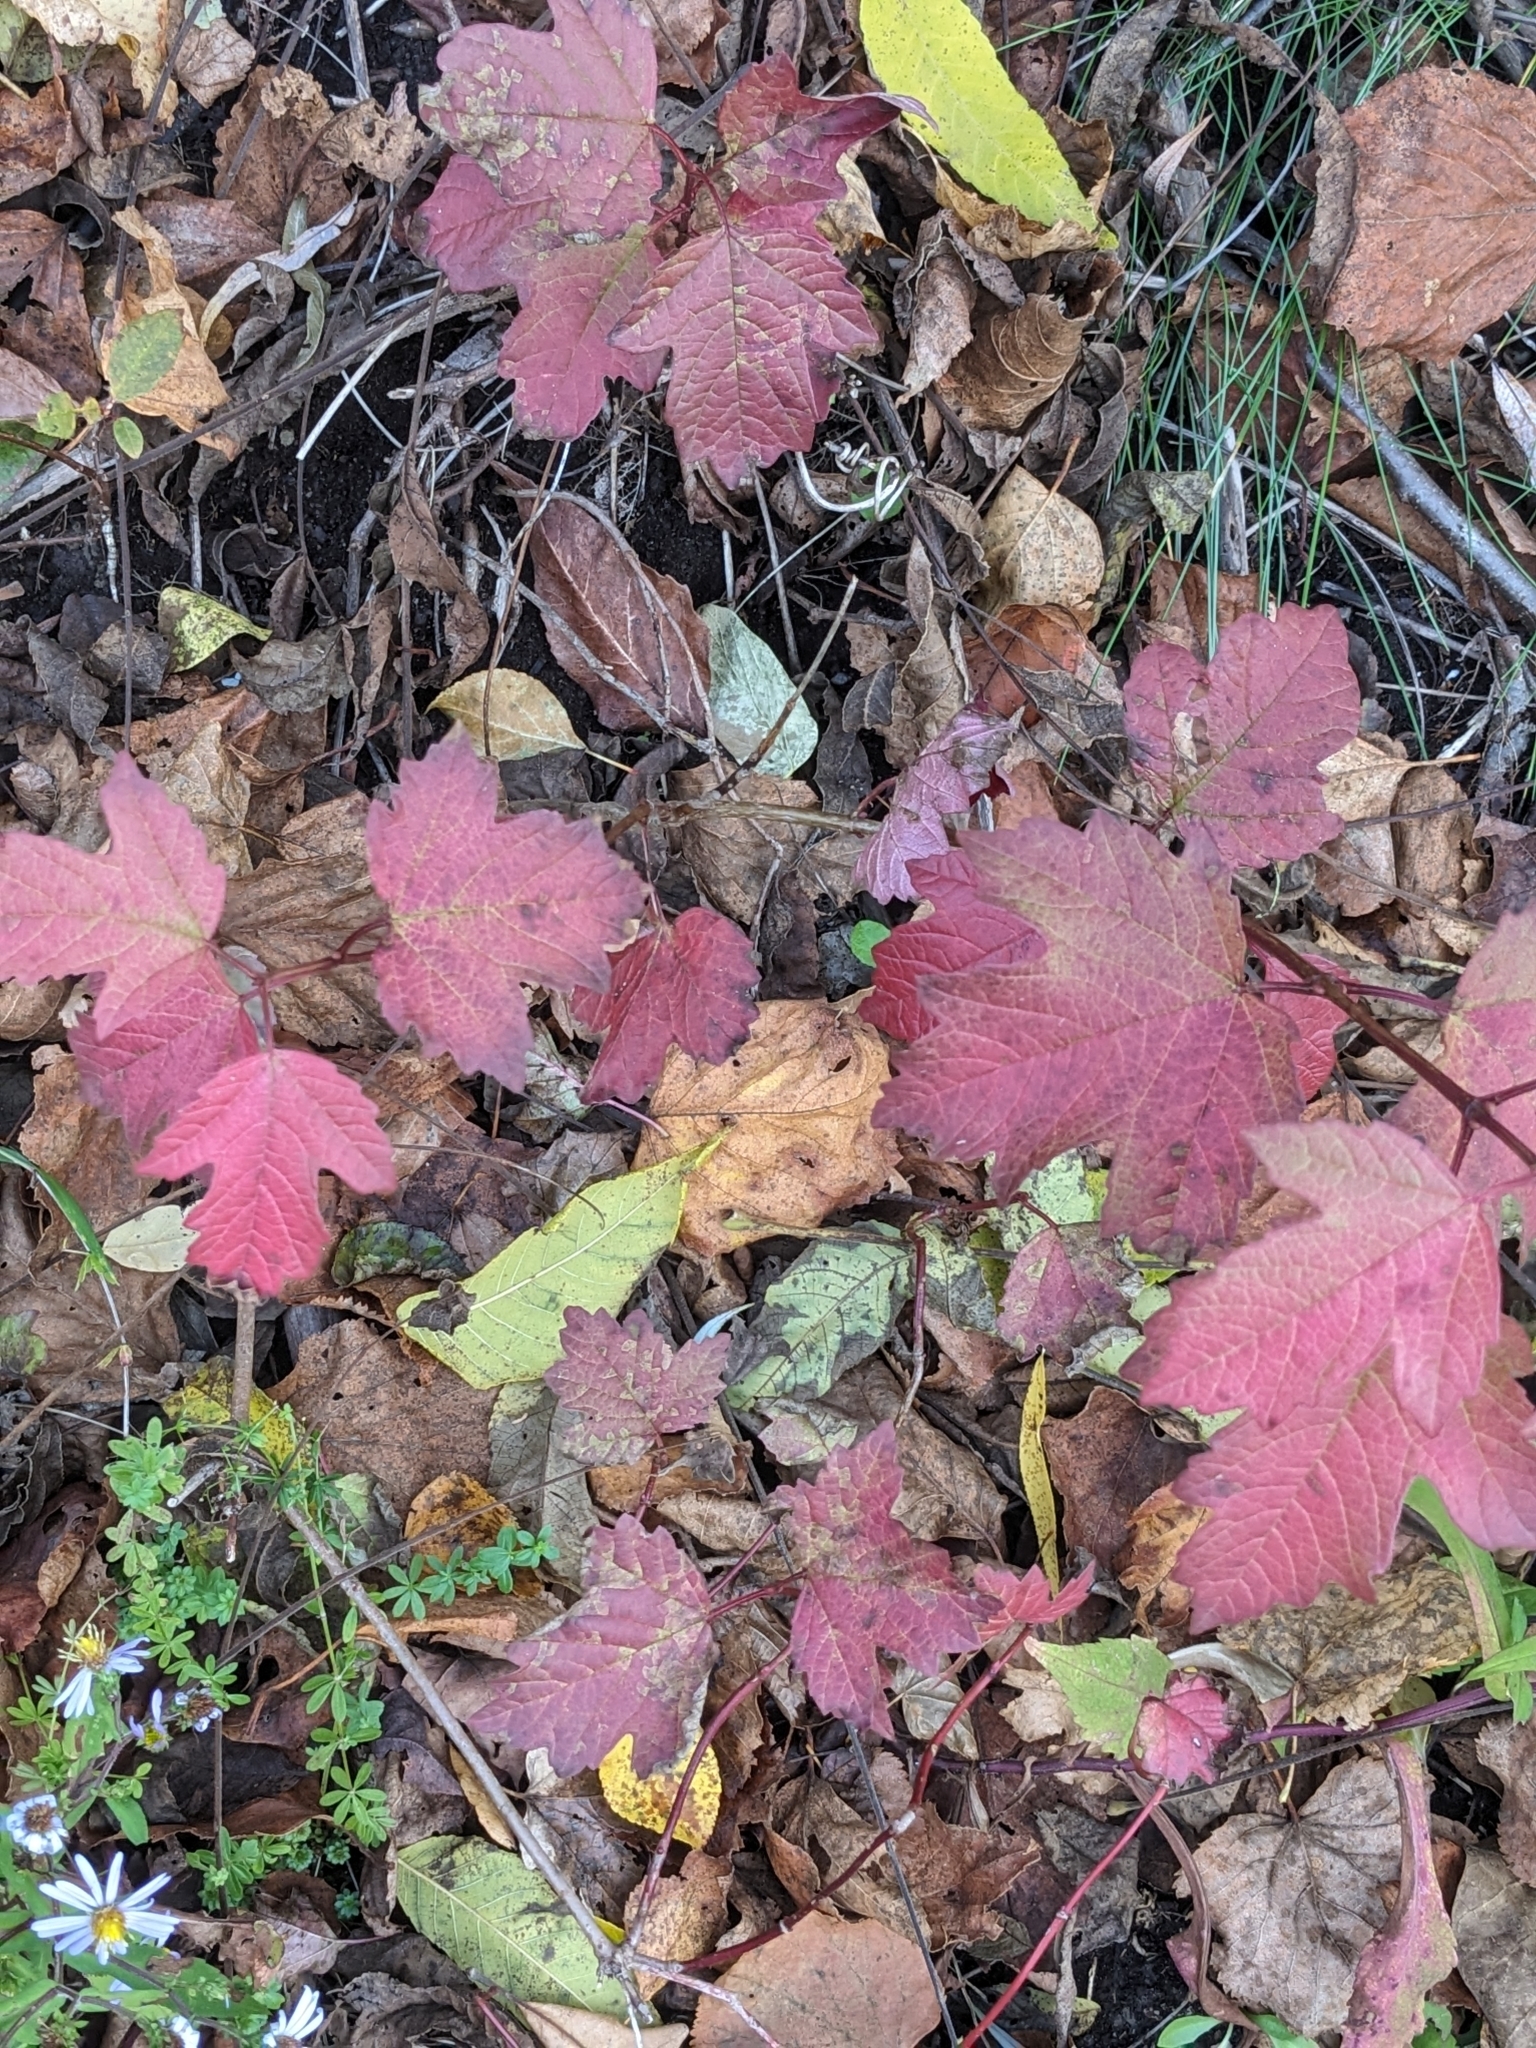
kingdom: Plantae
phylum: Tracheophyta
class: Magnoliopsida
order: Dipsacales
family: Viburnaceae
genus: Viburnum
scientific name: Viburnum opulus
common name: Guelder-rose
